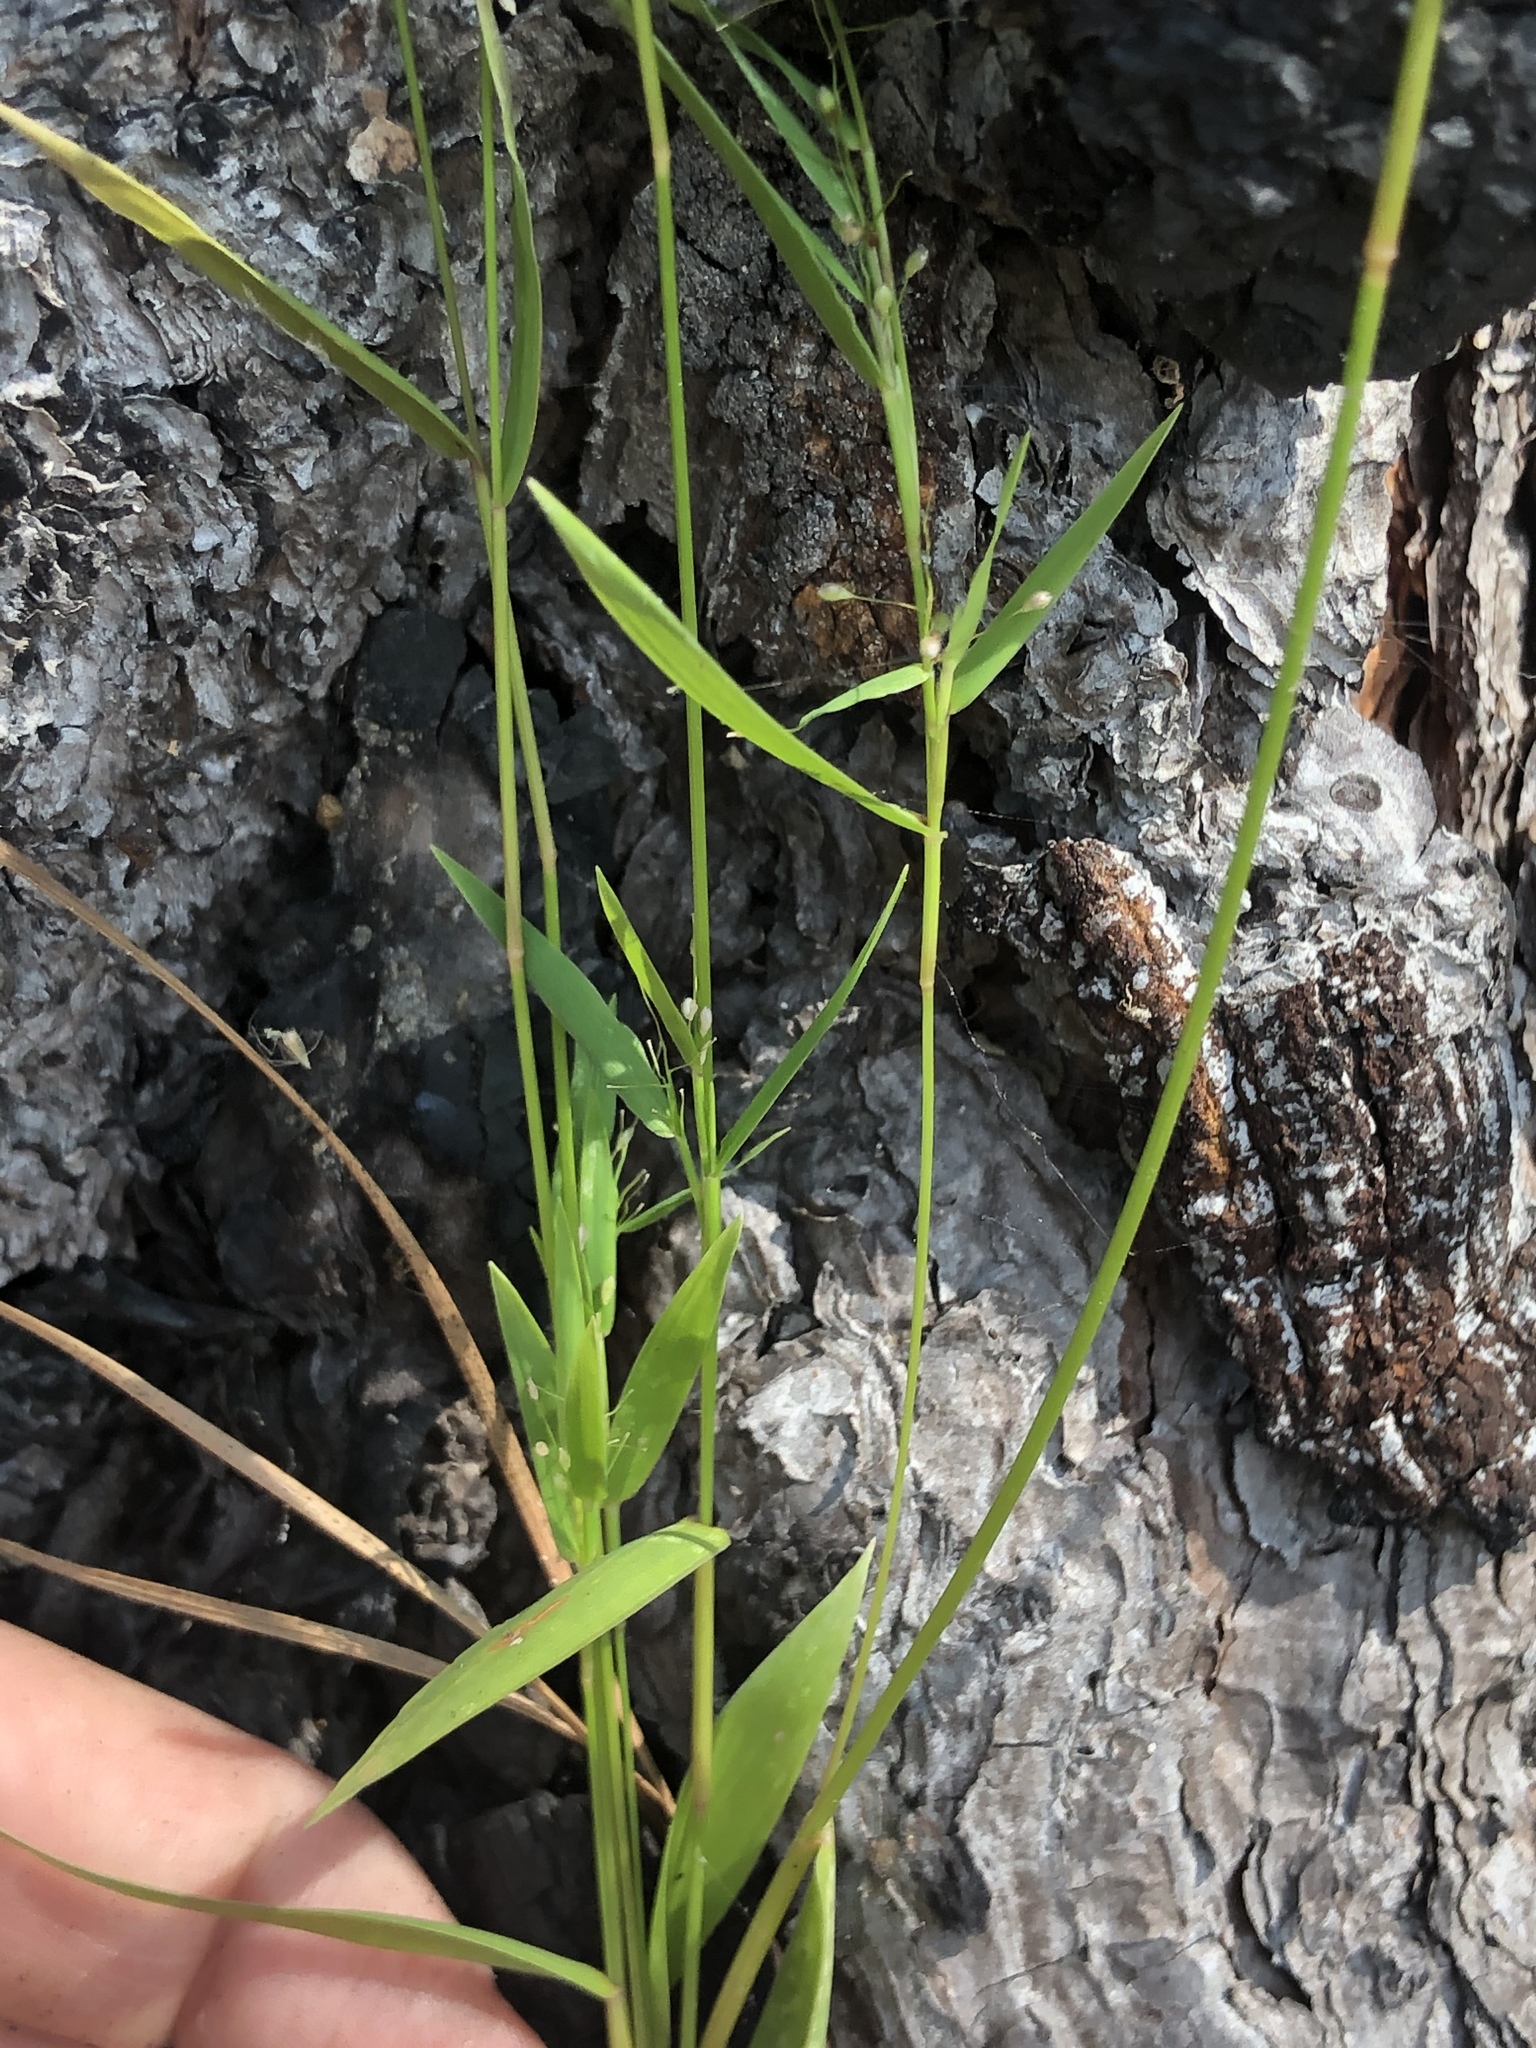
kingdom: Plantae
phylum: Tracheophyta
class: Liliopsida
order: Poales
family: Poaceae
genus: Dichanthelium
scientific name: Dichanthelium tenue
